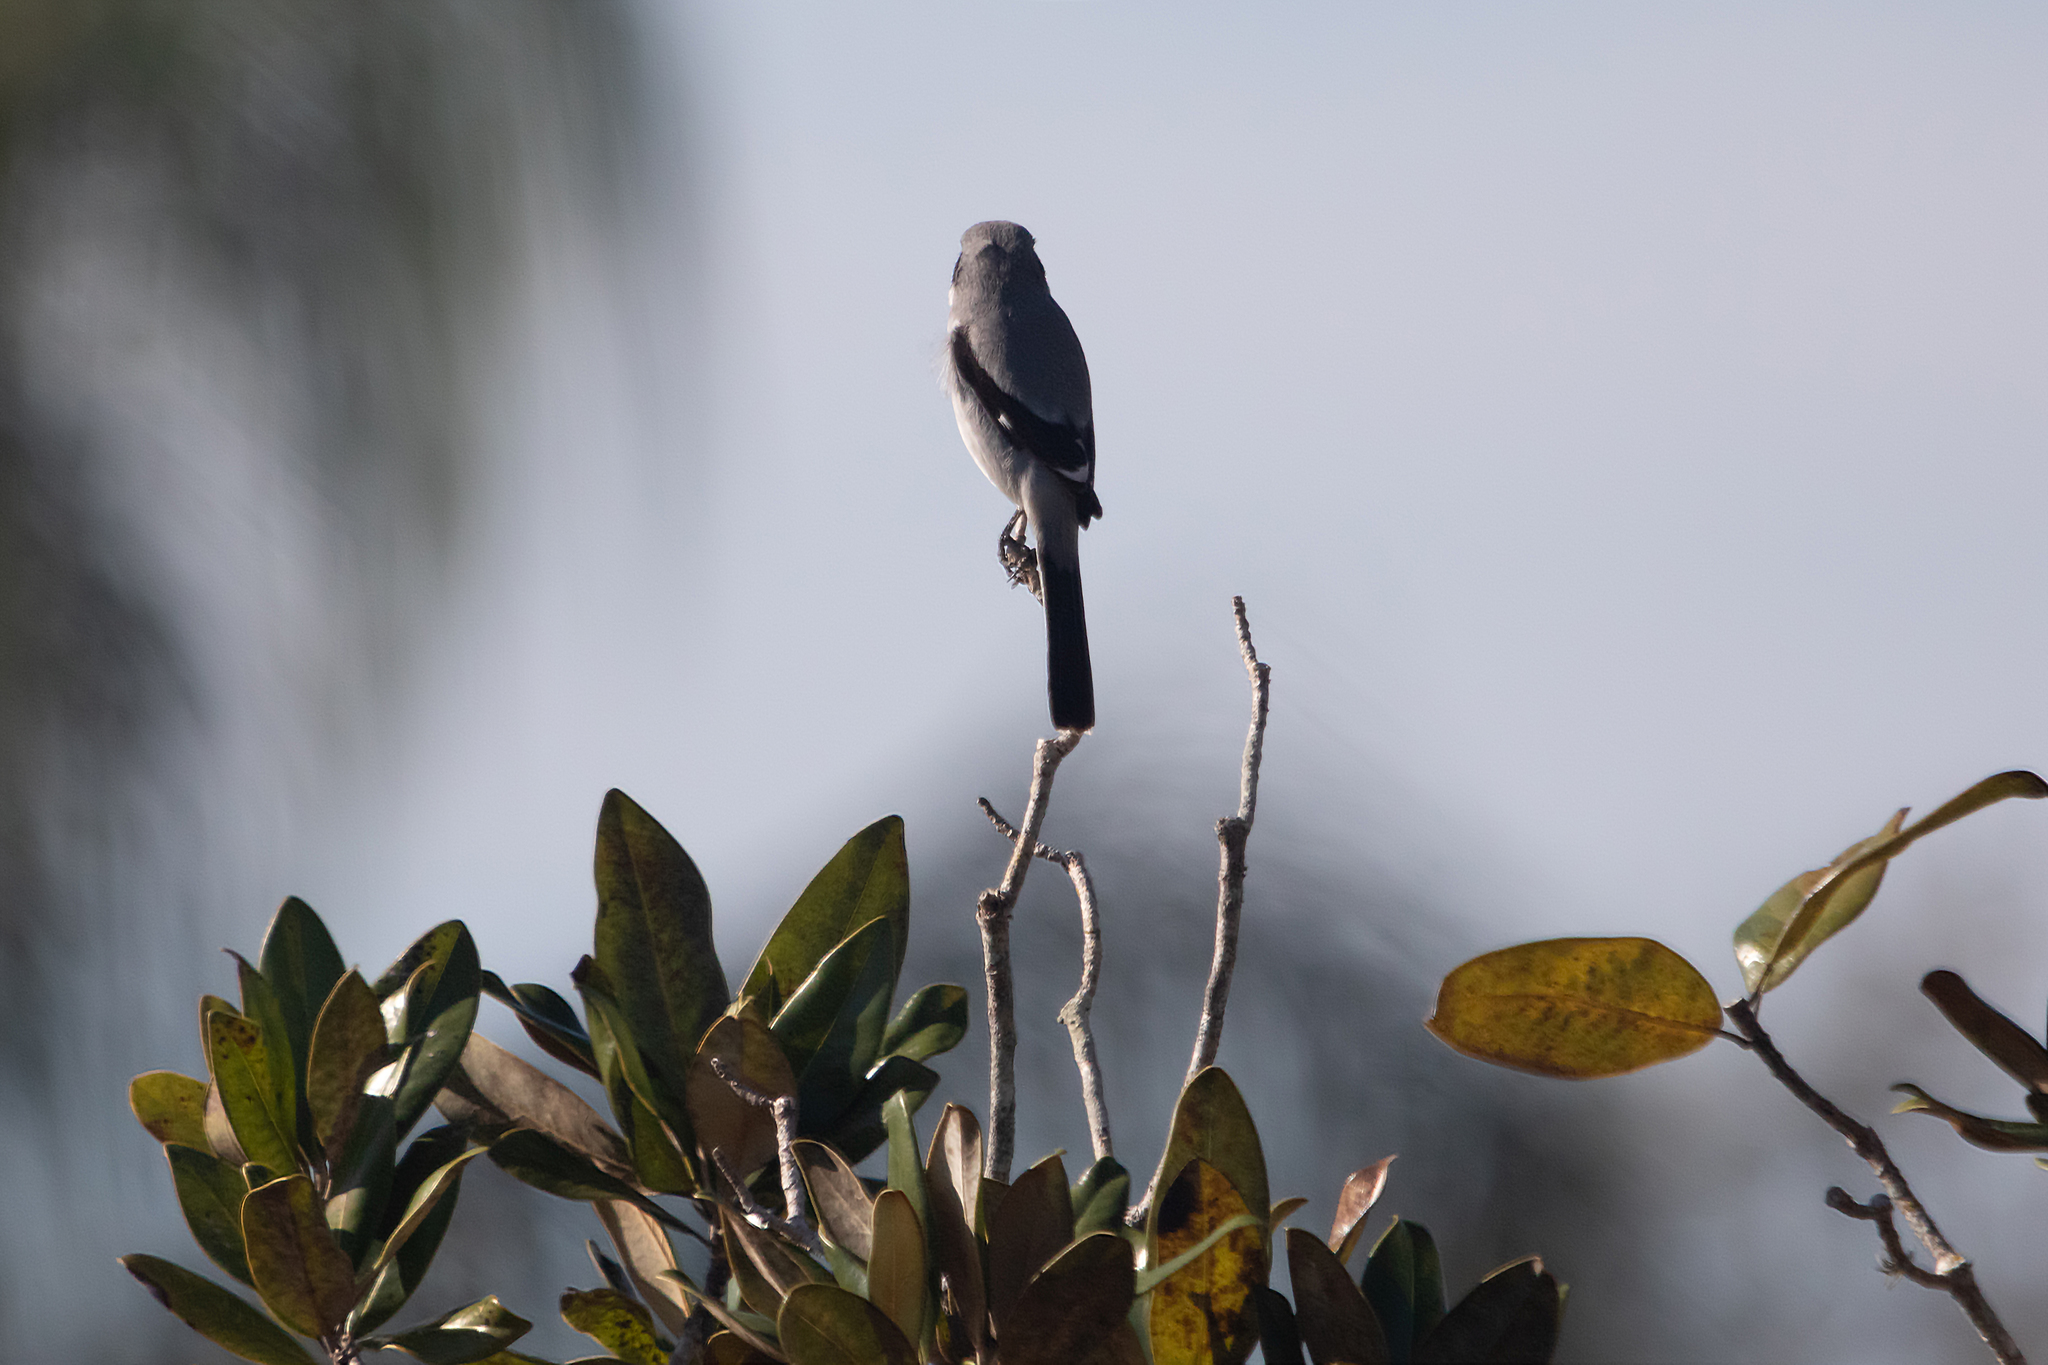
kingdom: Animalia
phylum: Chordata
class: Aves
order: Passeriformes
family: Laniidae
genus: Lanius
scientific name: Lanius ludovicianus
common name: Loggerhead shrike
